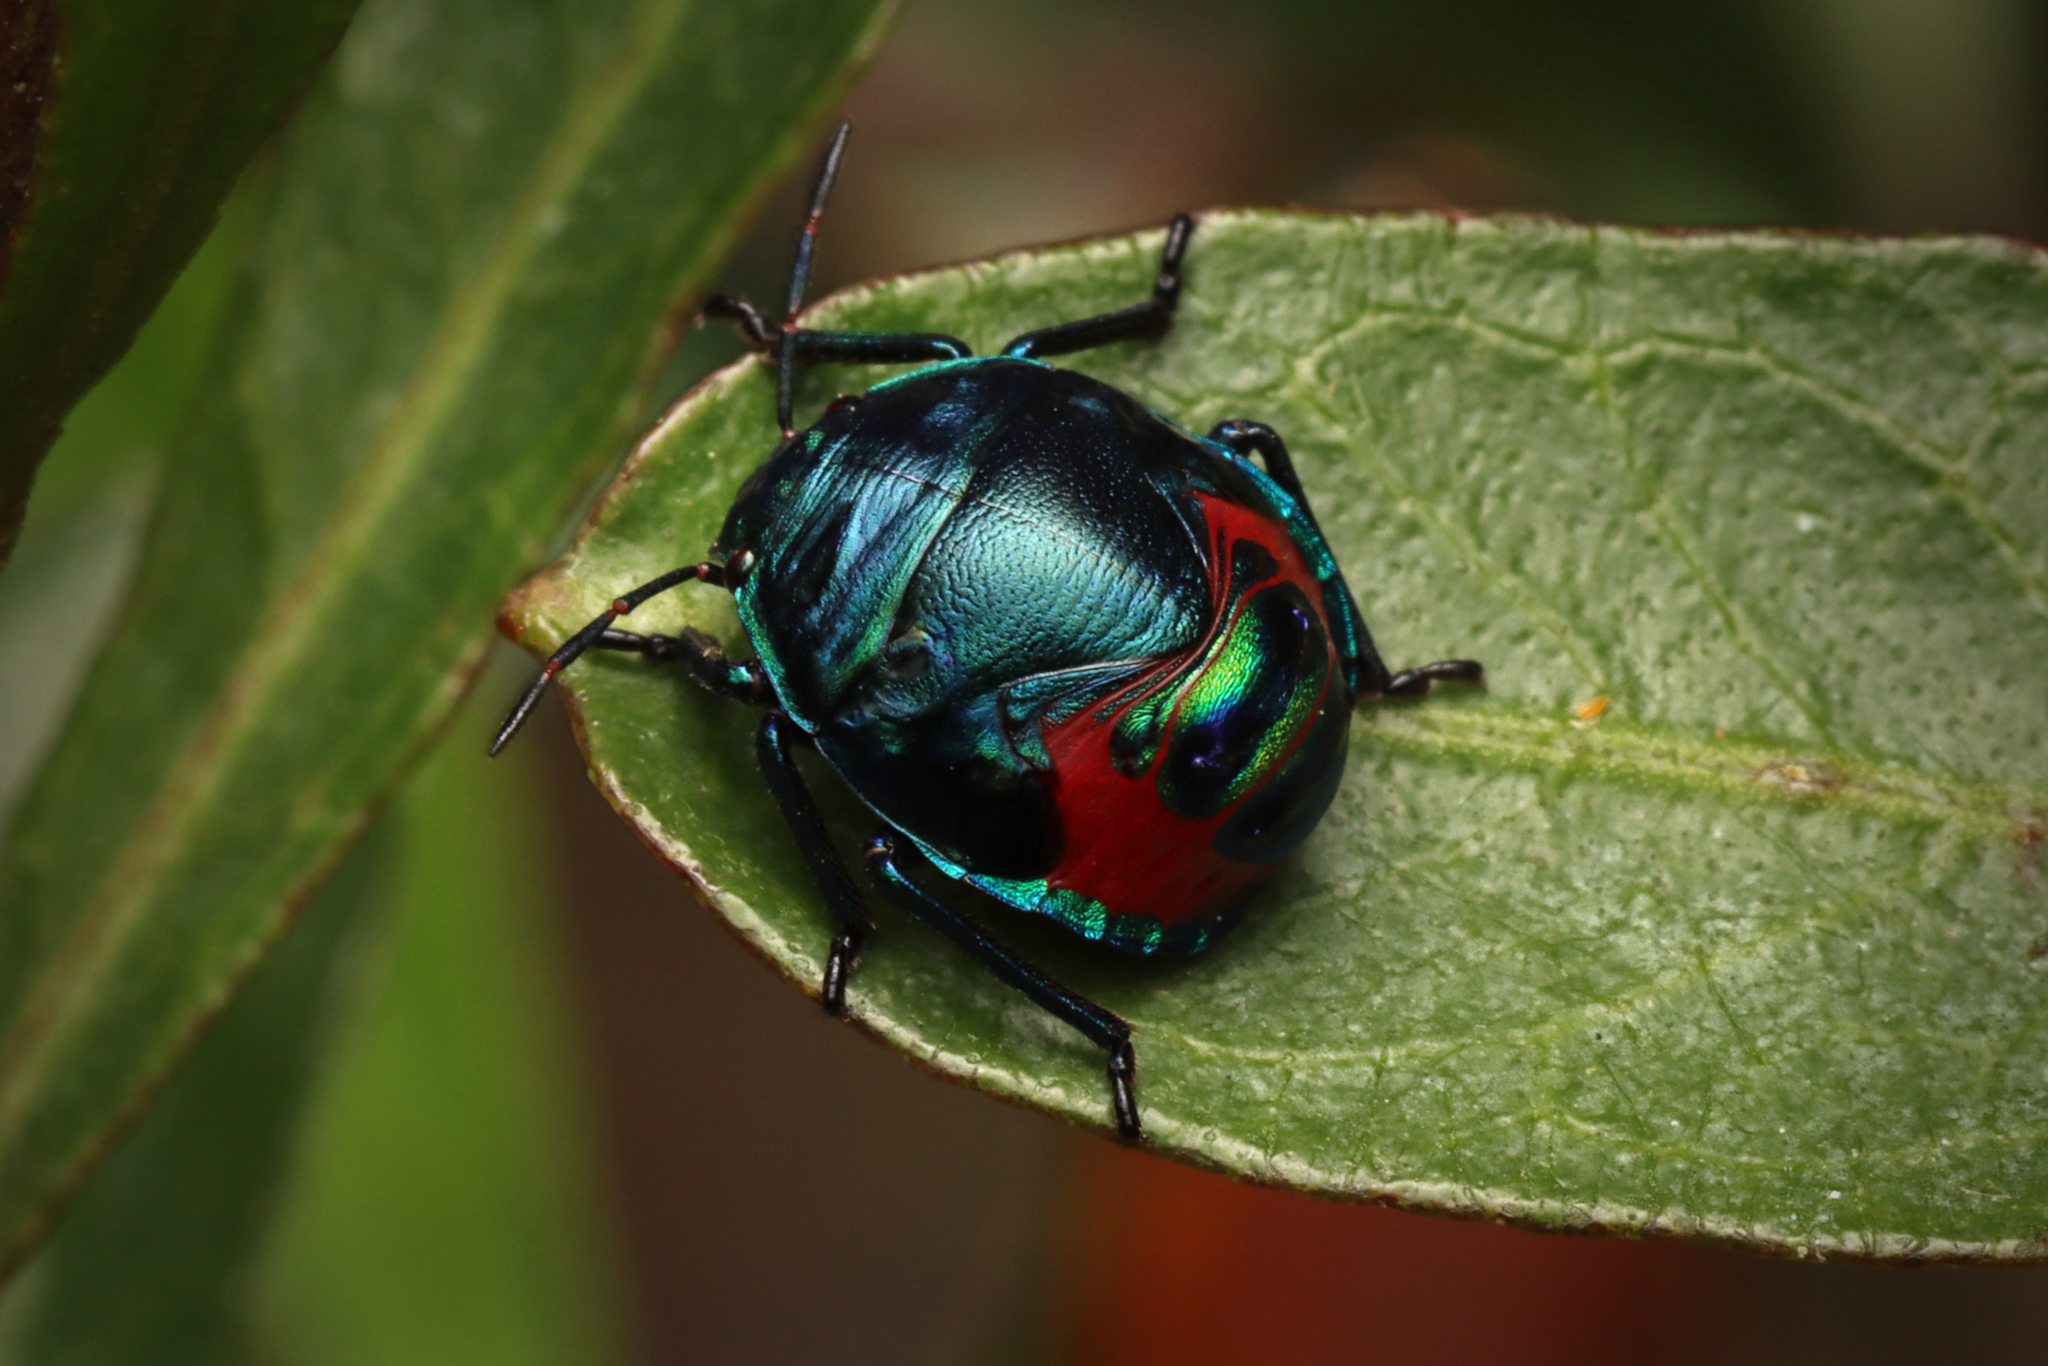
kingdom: Animalia
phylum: Arthropoda
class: Insecta
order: Hemiptera
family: Scutelleridae
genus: Choerocoris
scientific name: Choerocoris paganus
